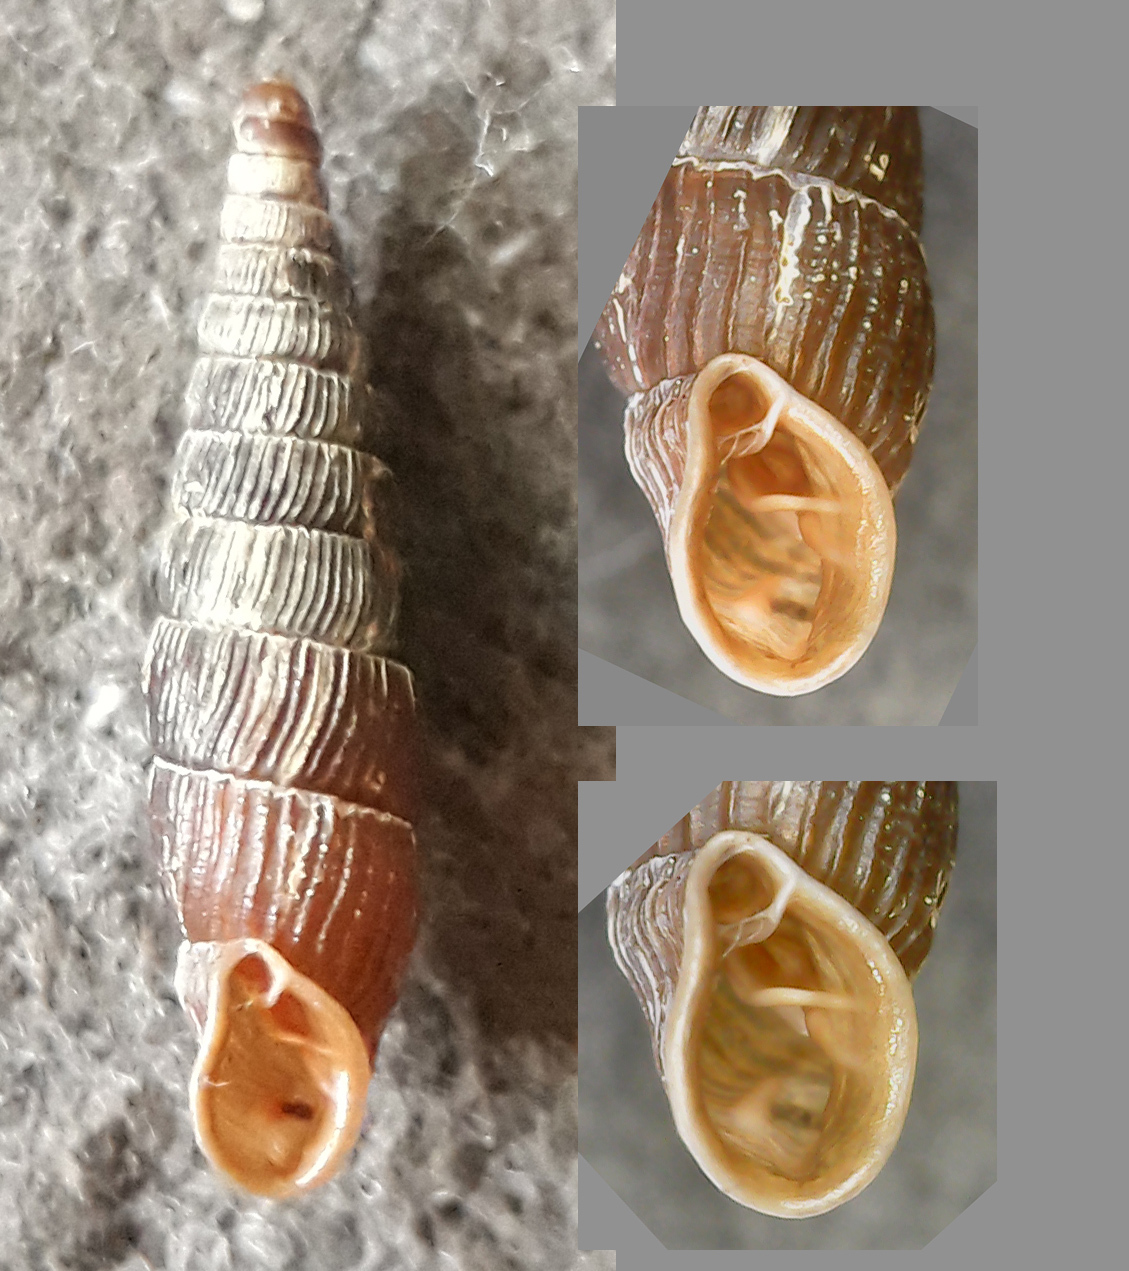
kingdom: Animalia
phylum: Mollusca
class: Gastropoda
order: Stylommatophora
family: Clausiliidae
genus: Clausilia
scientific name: Clausilia cruciata
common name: Sharp-ribbed door snail
